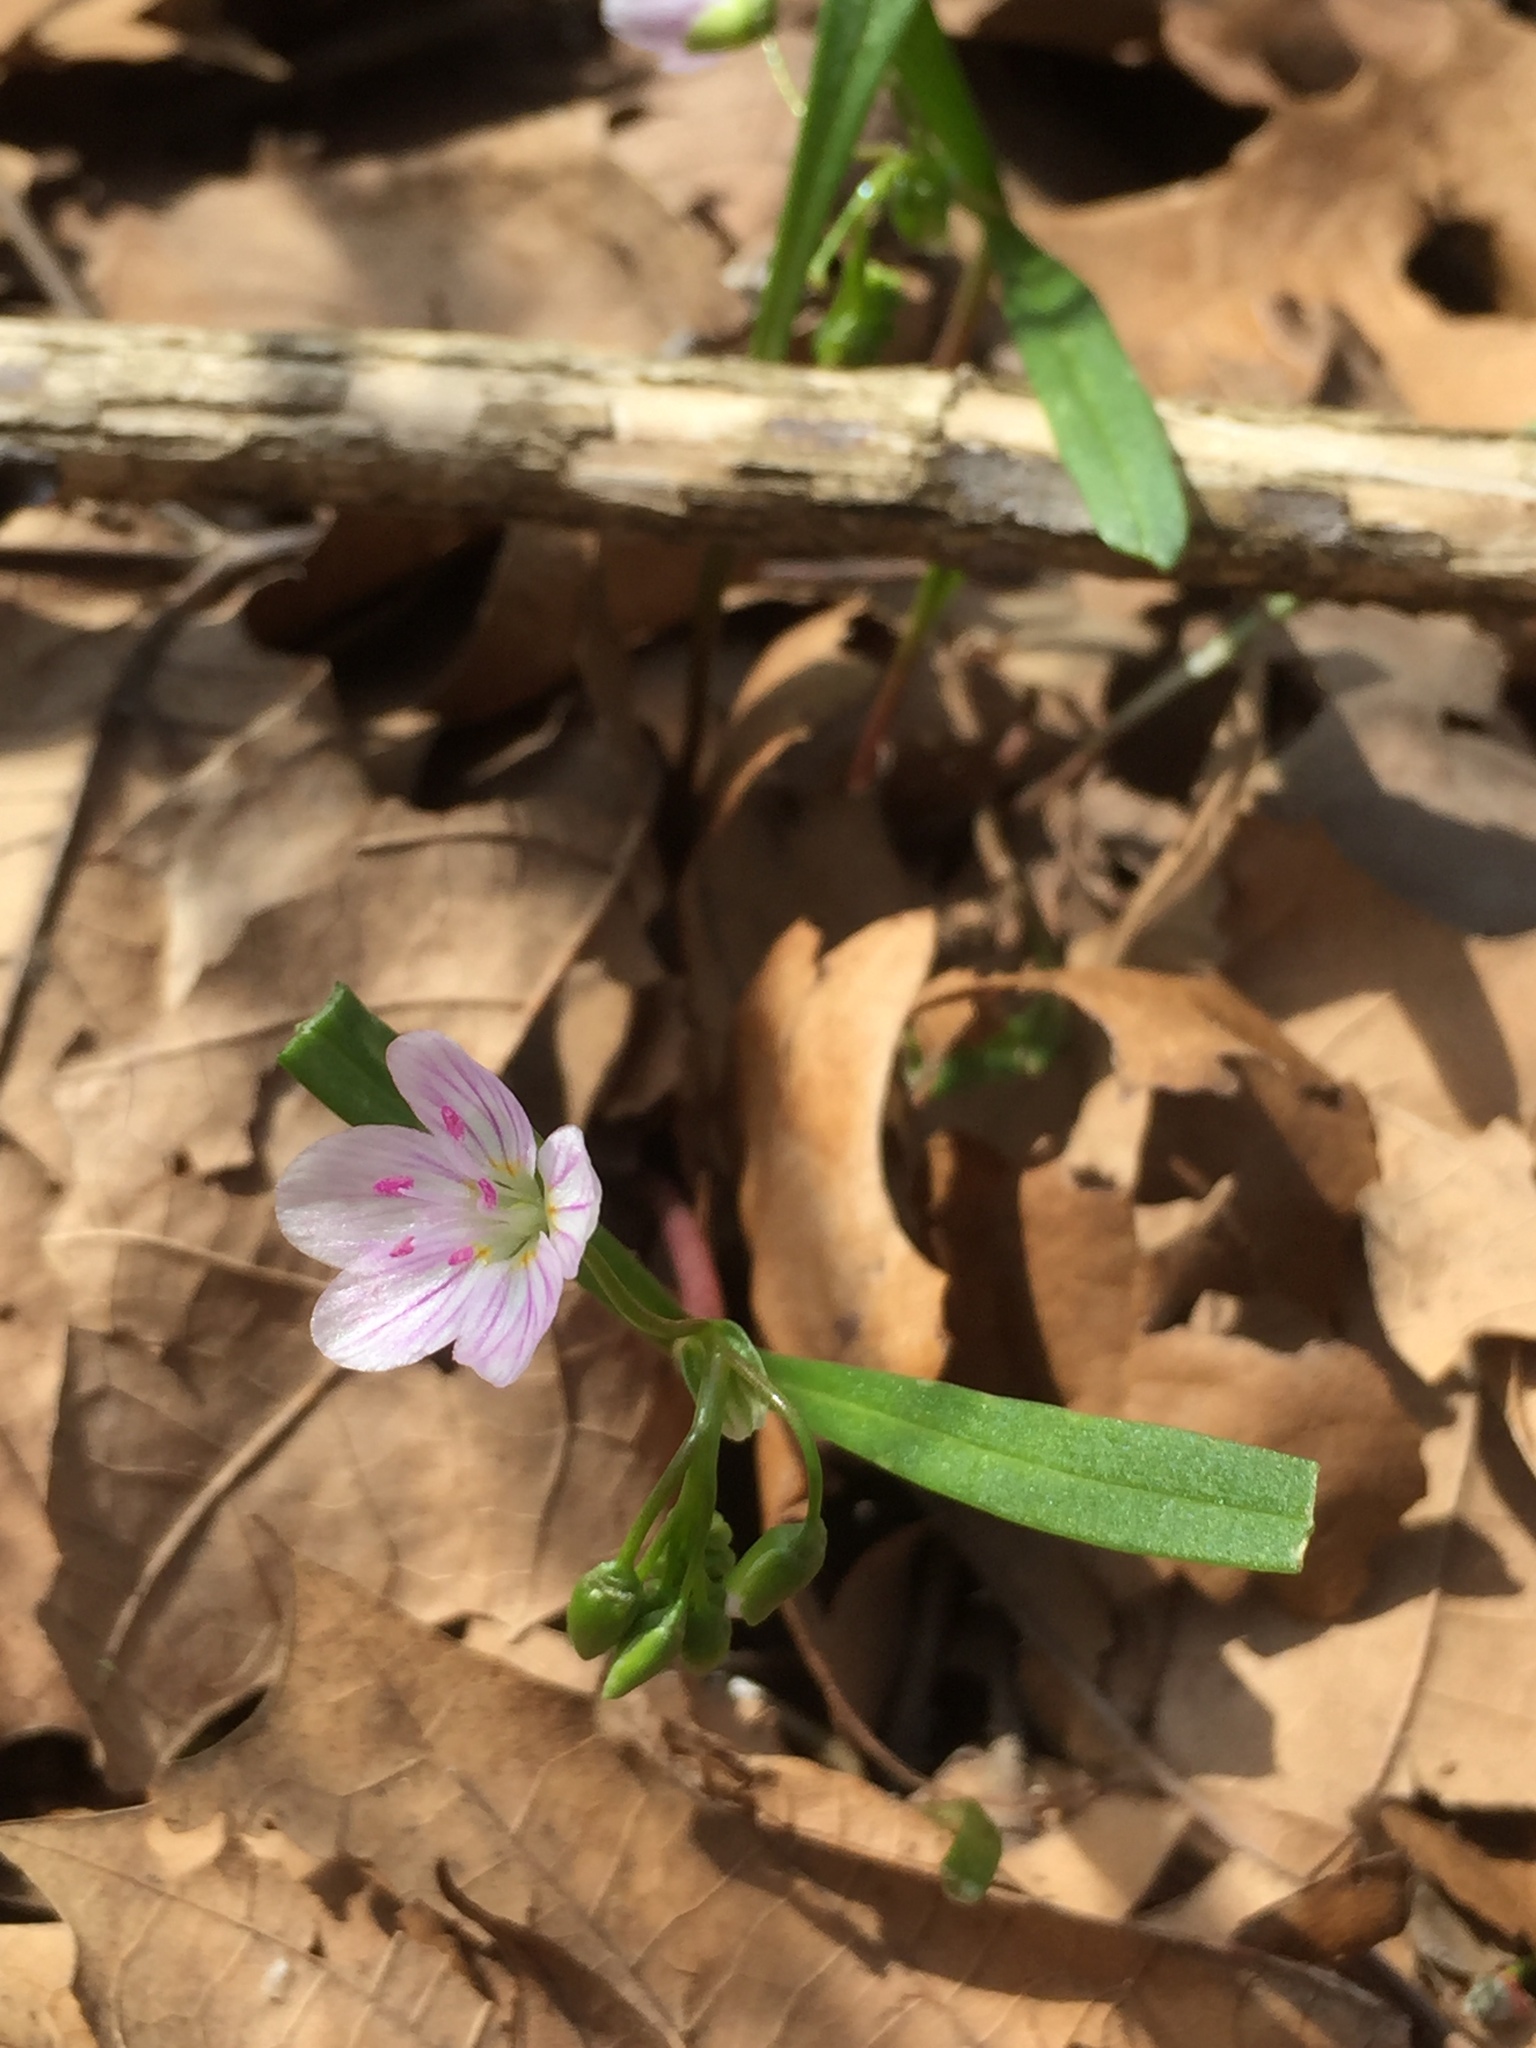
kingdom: Plantae
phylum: Tracheophyta
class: Magnoliopsida
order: Caryophyllales
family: Montiaceae
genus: Claytonia
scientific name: Claytonia virginica
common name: Virginia springbeauty
